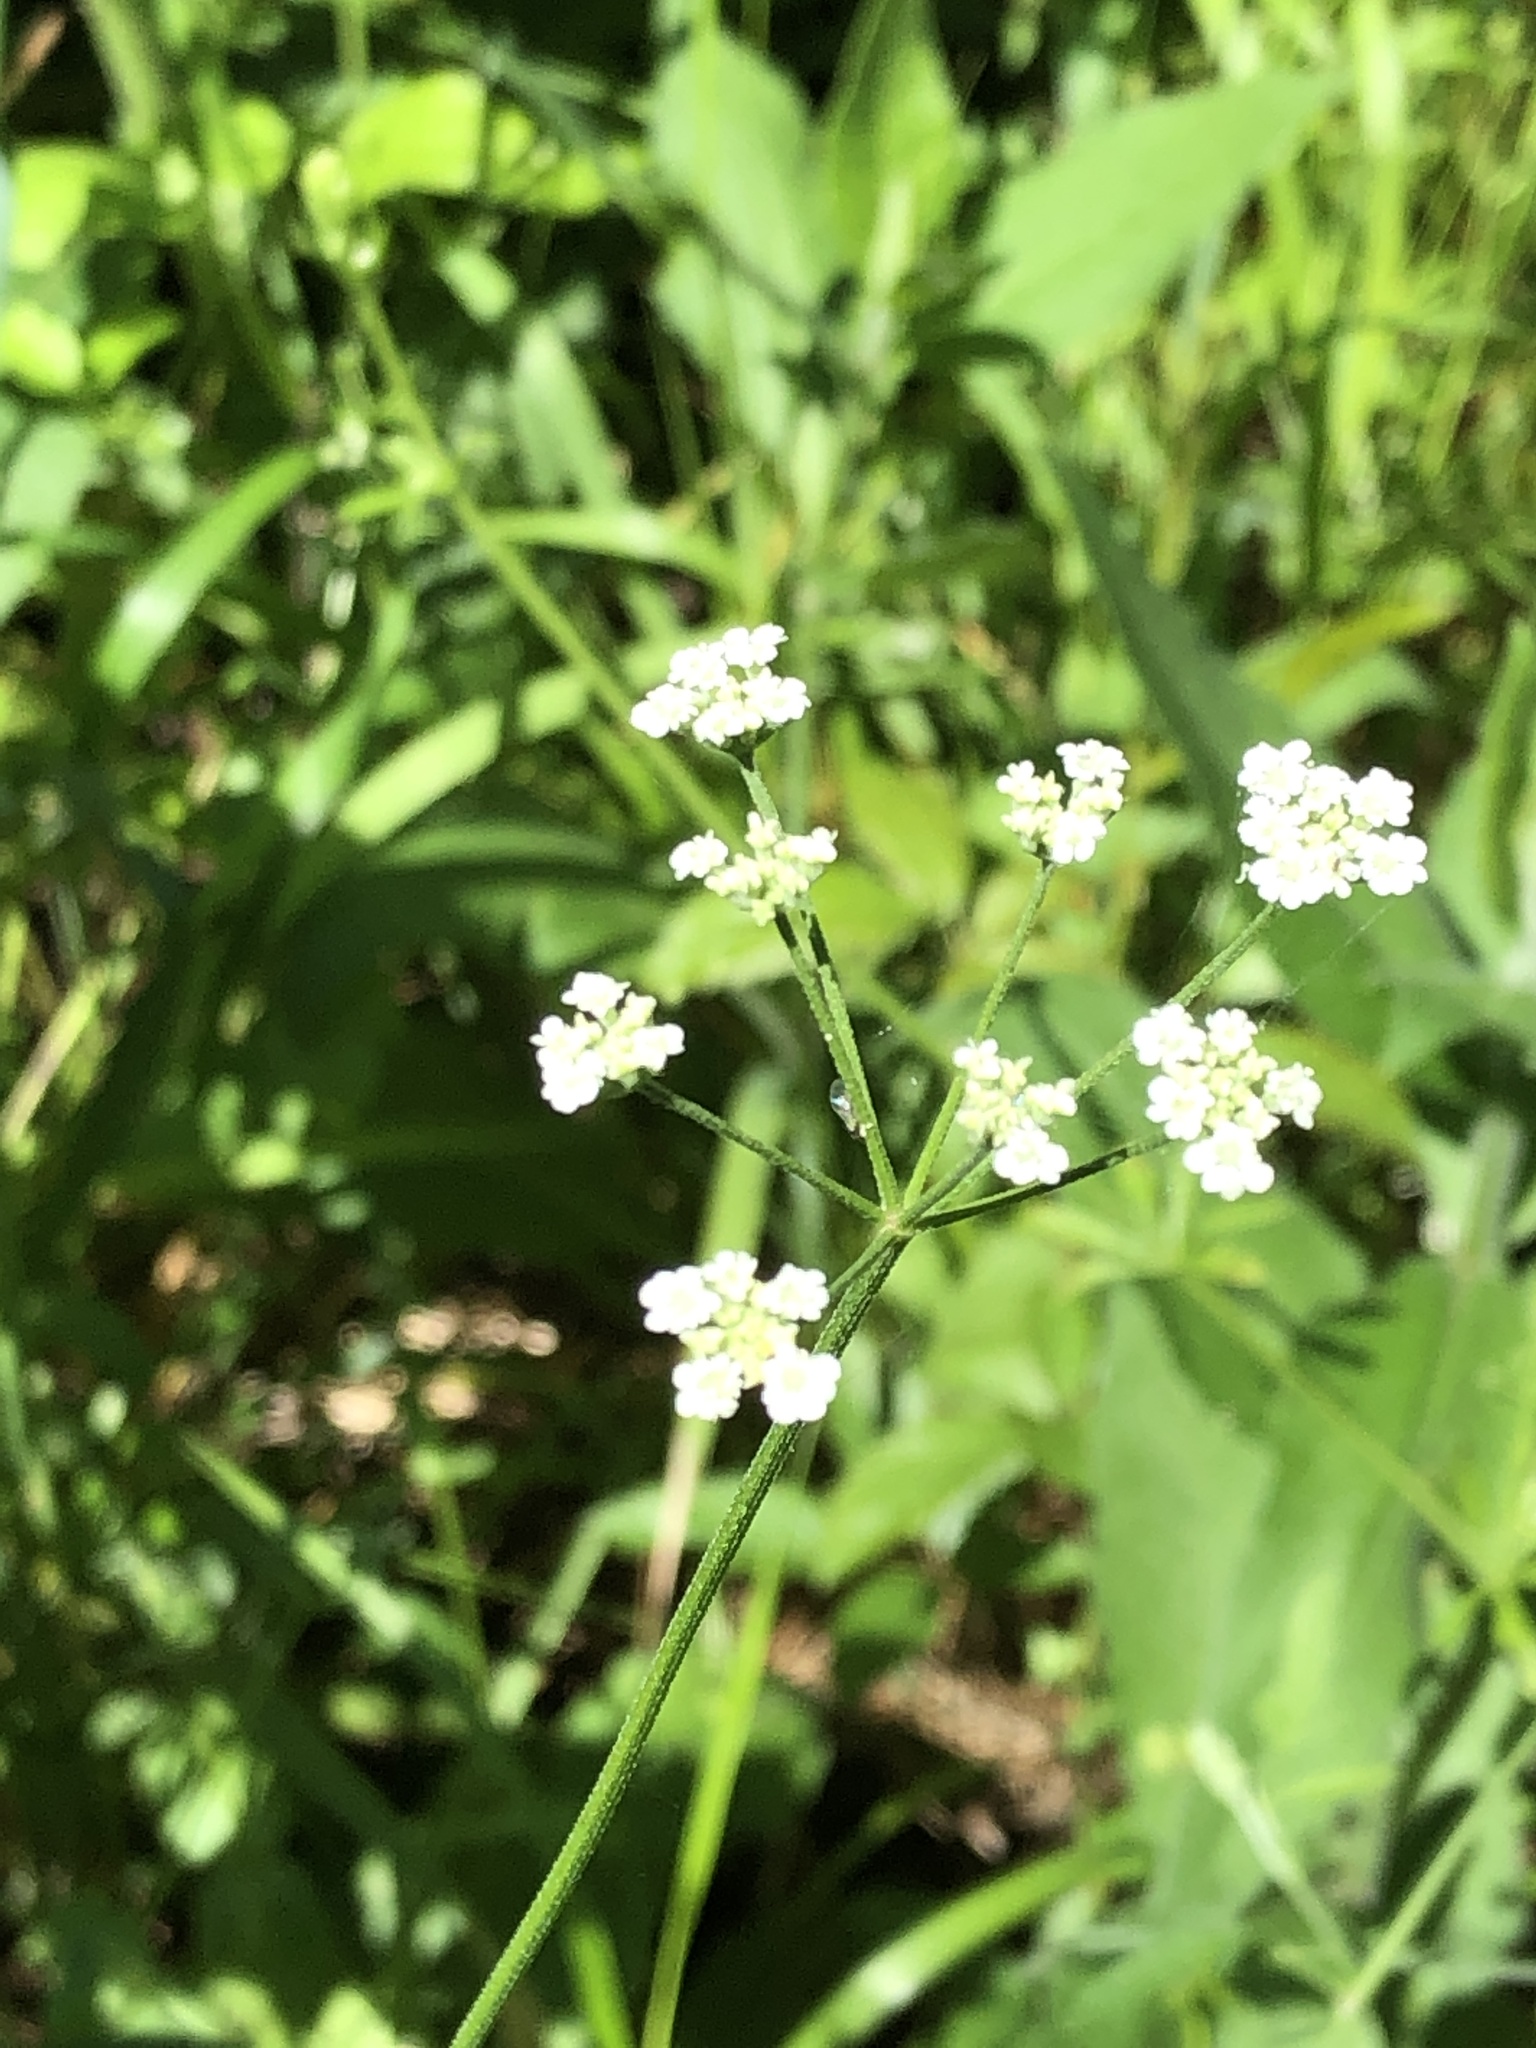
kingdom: Plantae
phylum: Tracheophyta
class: Magnoliopsida
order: Apiales
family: Apiaceae
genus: Torilis
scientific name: Torilis arvensis
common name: Spreading hedge-parsley
